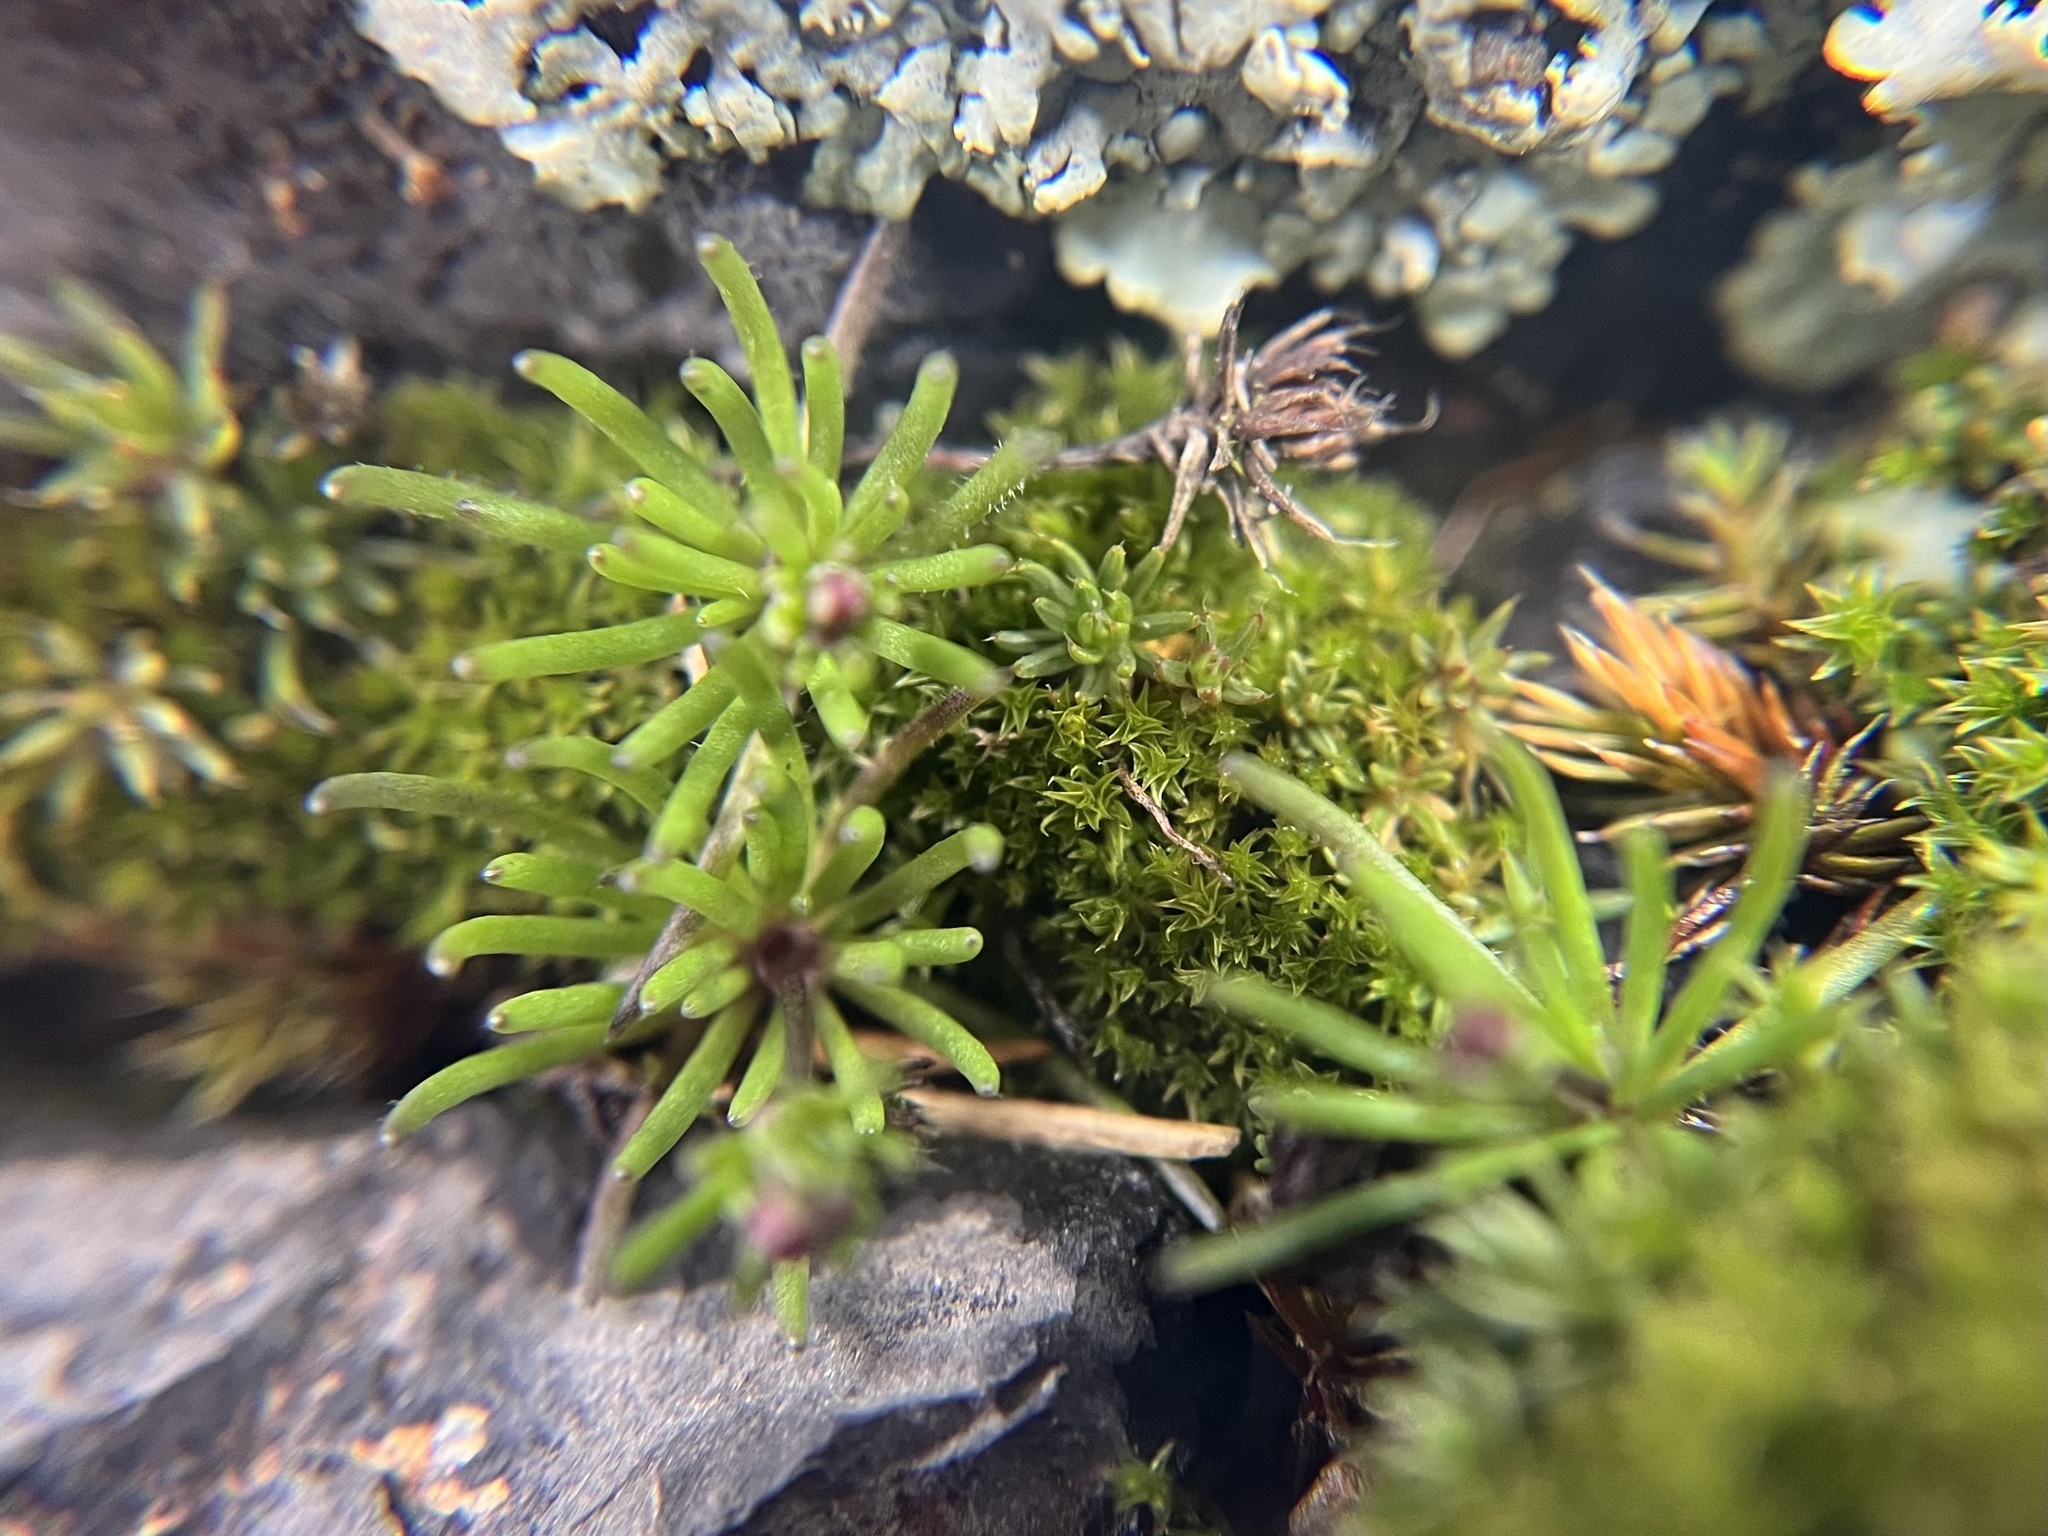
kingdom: Plantae
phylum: Tracheophyta
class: Magnoliopsida
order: Caryophyllales
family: Caryophyllaceae
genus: Spergula
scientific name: Spergula morisonii
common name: Pearlwort spurrey
